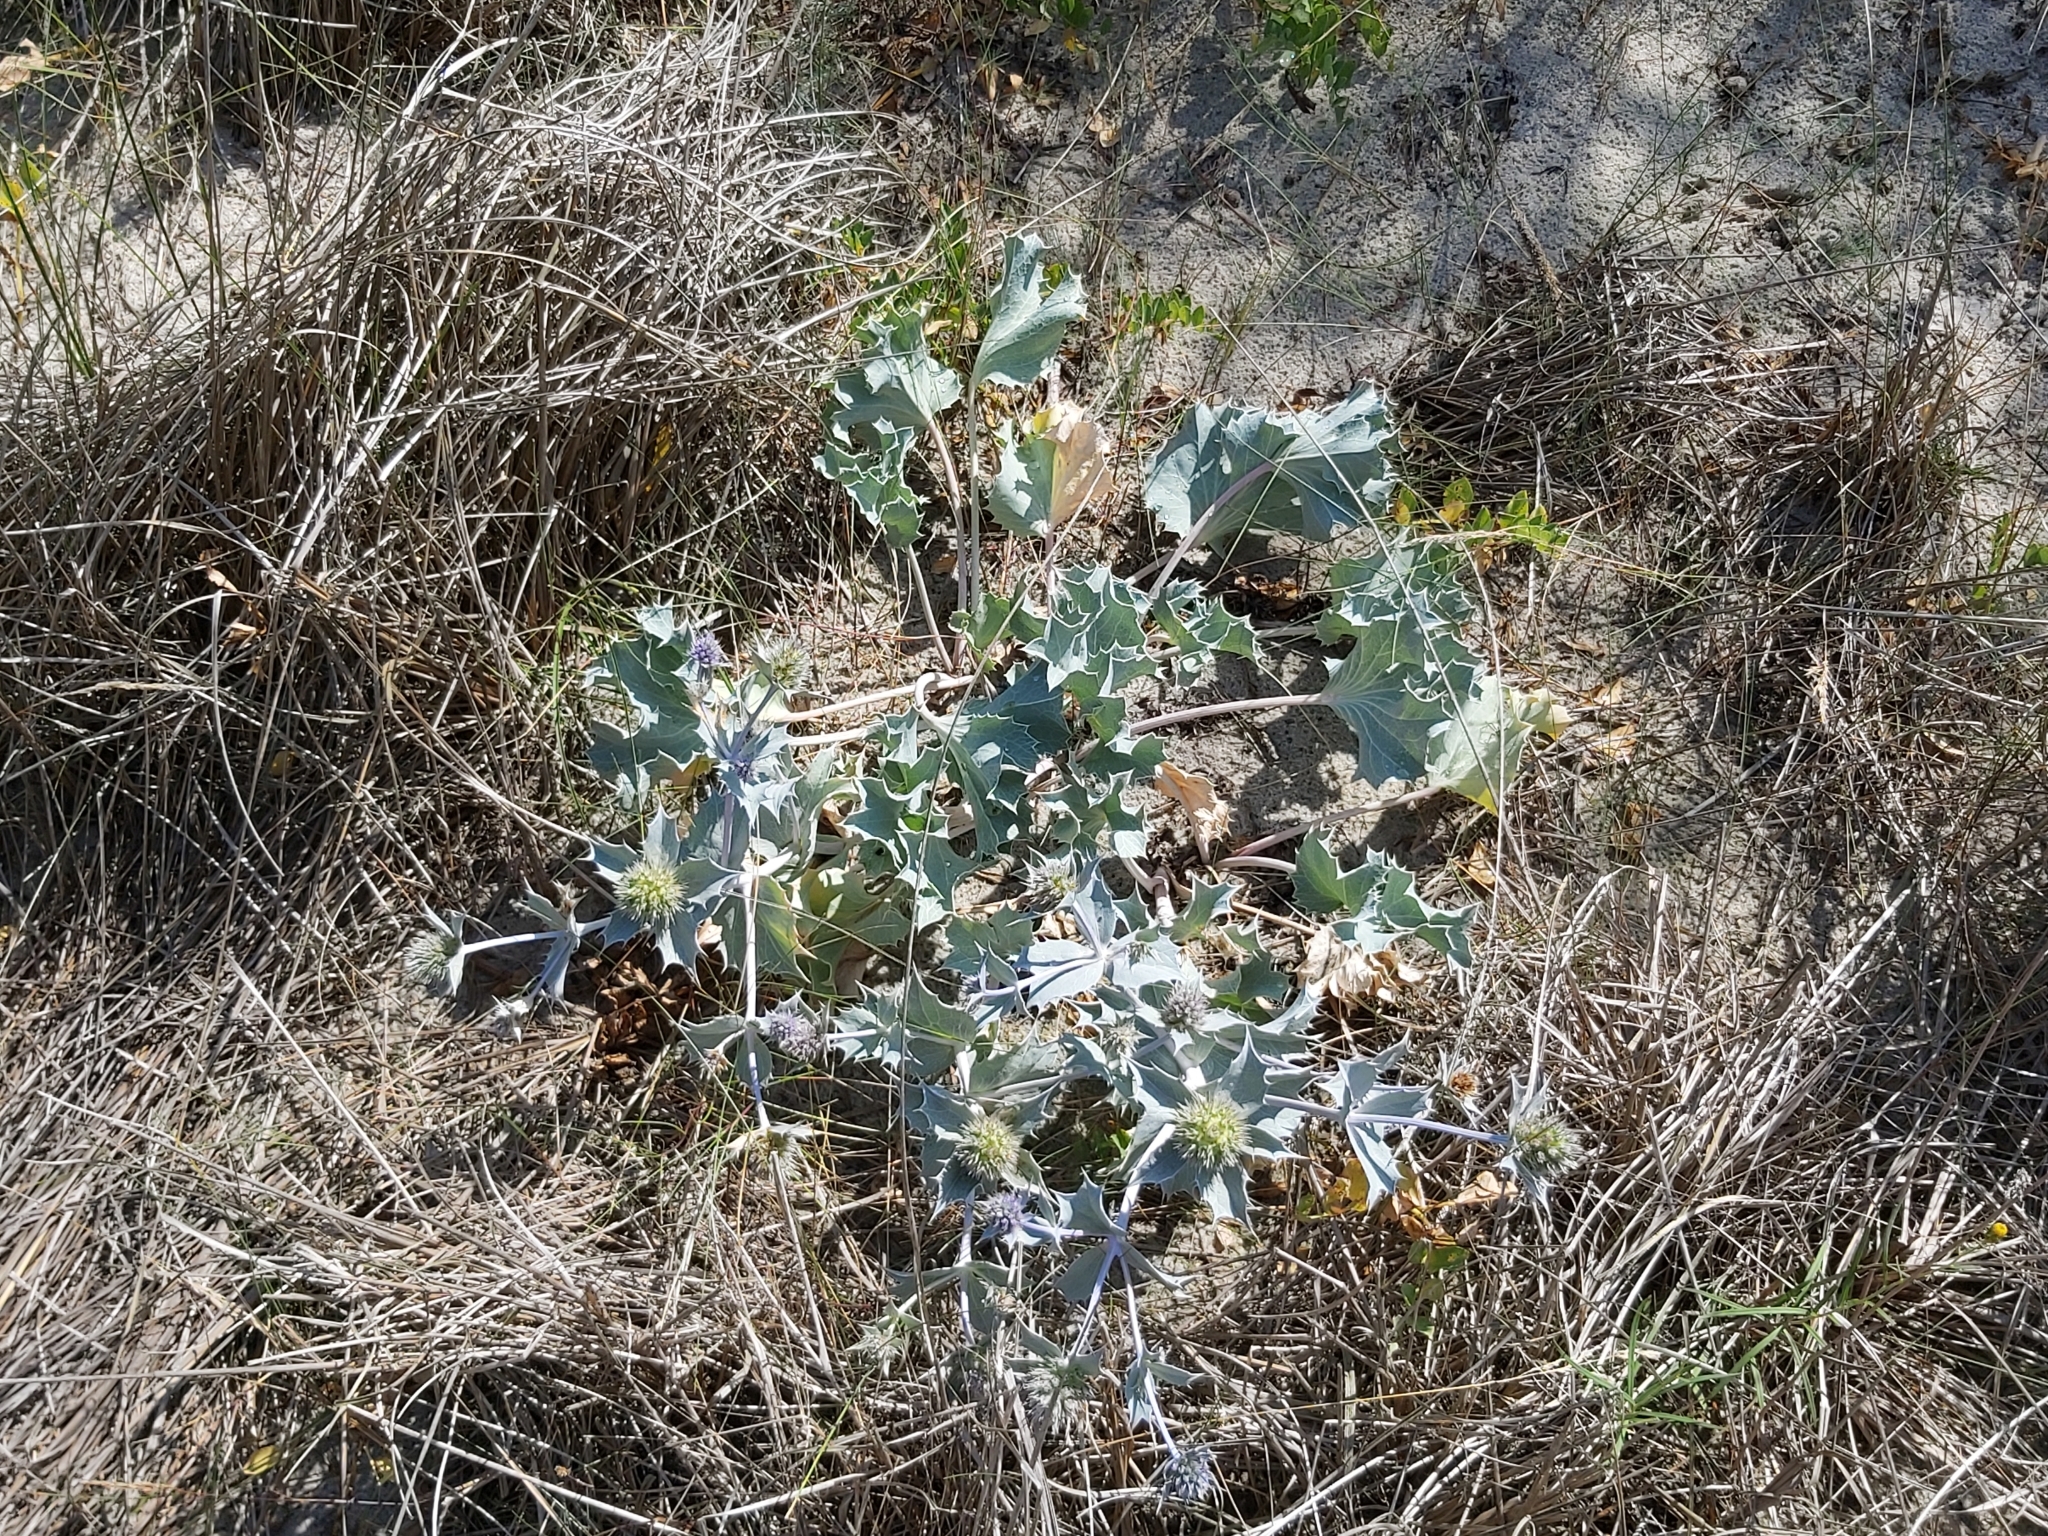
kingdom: Plantae
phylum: Tracheophyta
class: Magnoliopsida
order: Apiales
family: Apiaceae
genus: Eryngium
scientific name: Eryngium maritimum
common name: Sea-holly
